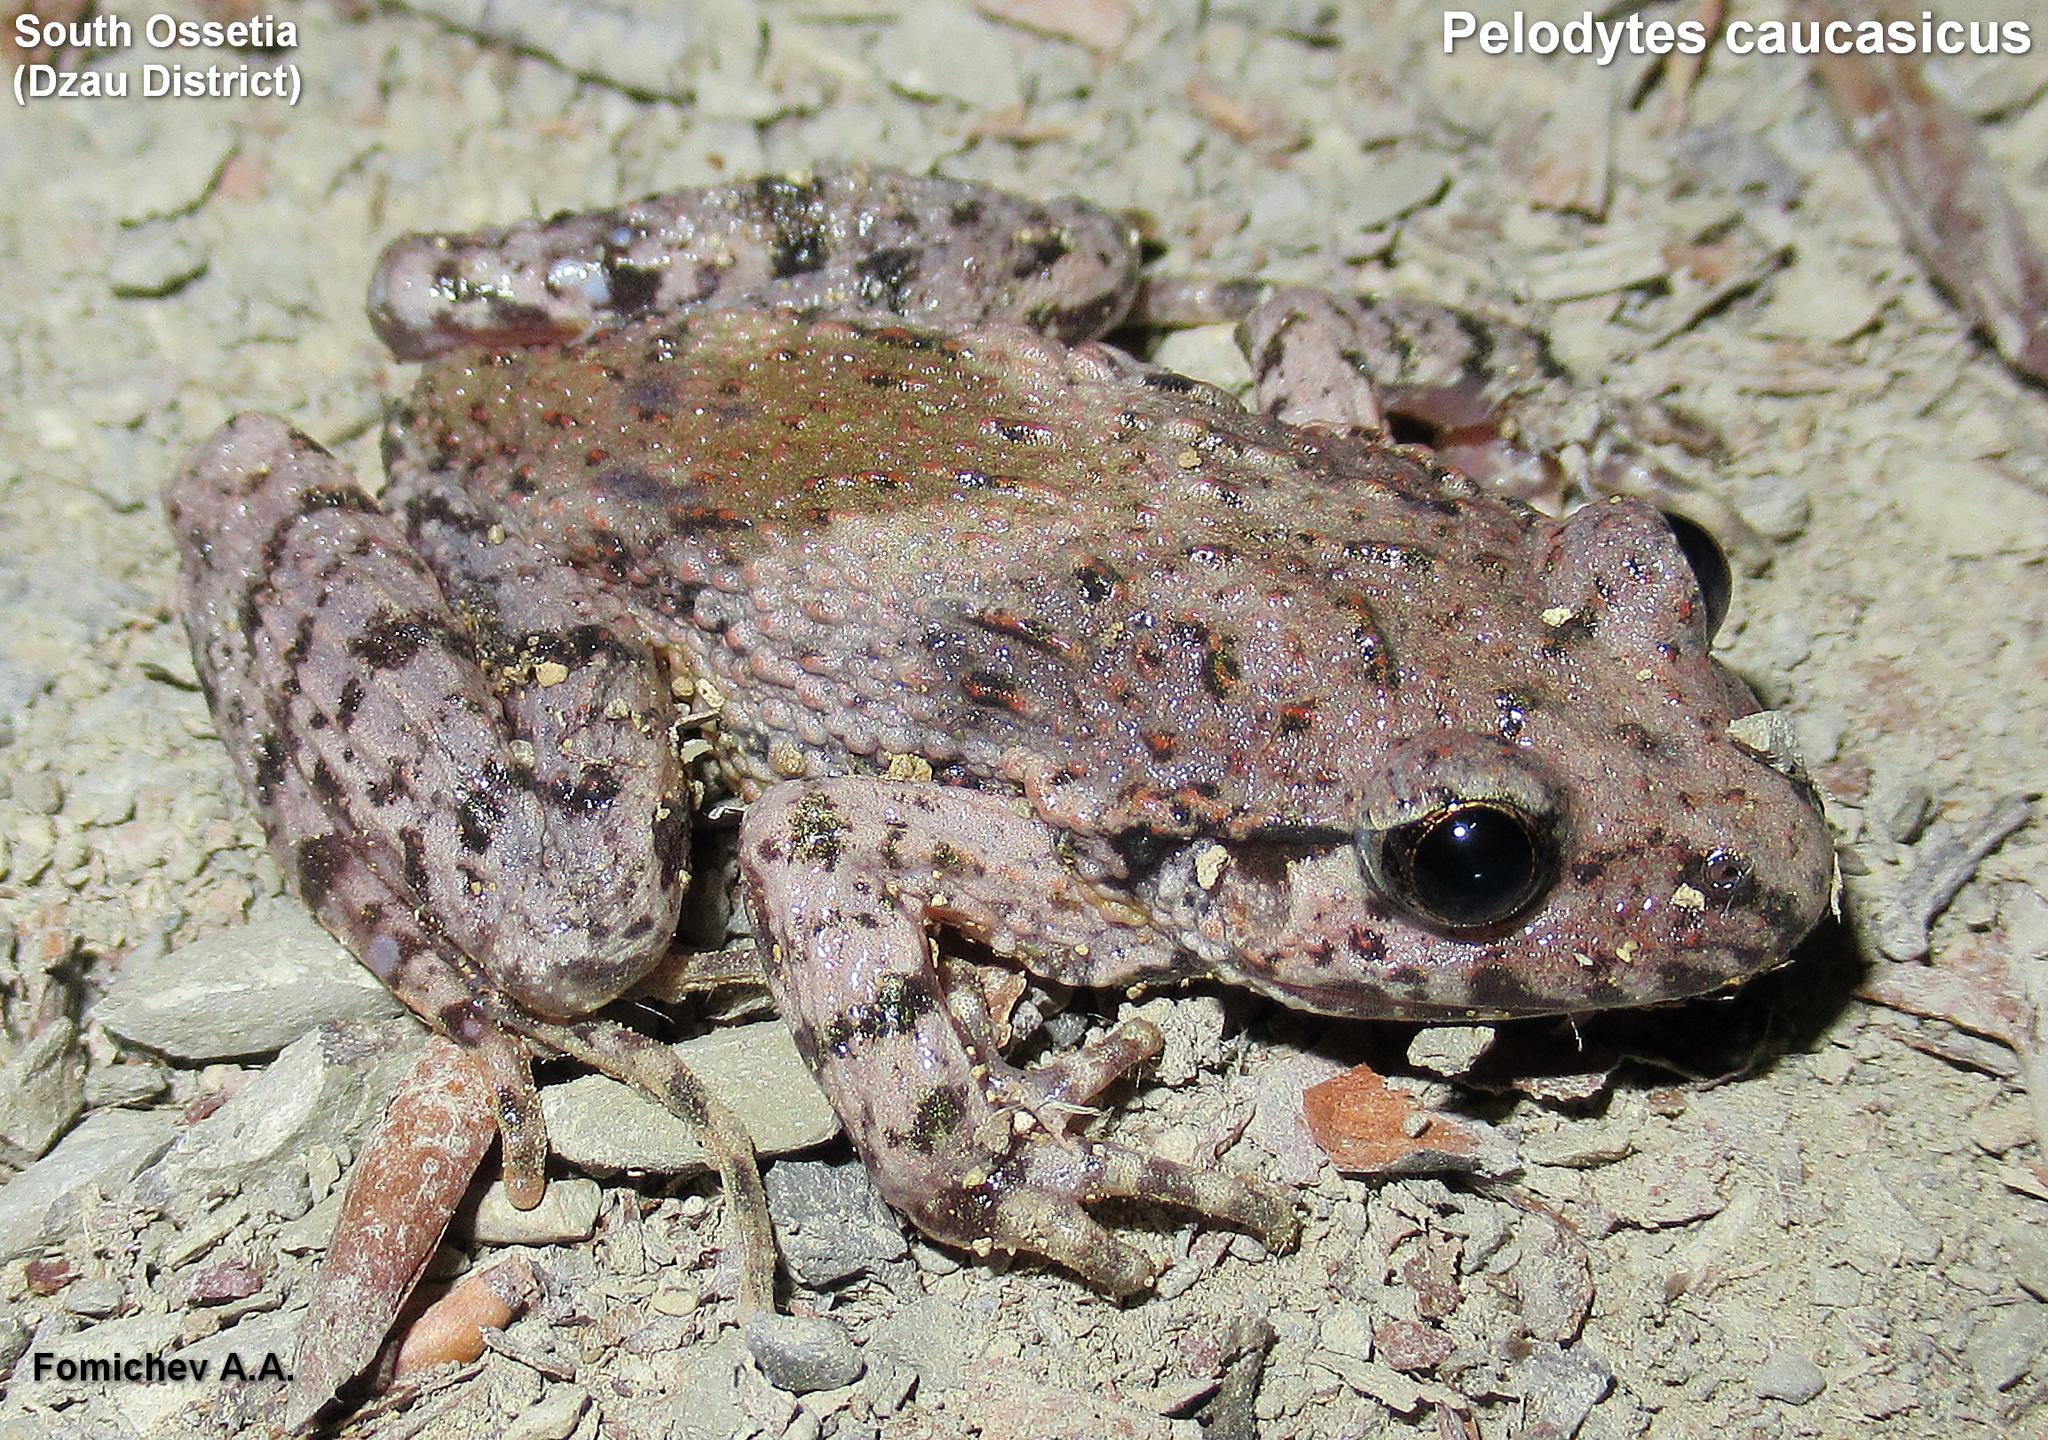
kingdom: Animalia
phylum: Chordata
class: Amphibia
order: Anura
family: Pelodytidae
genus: Pelodytes
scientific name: Pelodytes caucasicus
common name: Caucasus parsley frog
